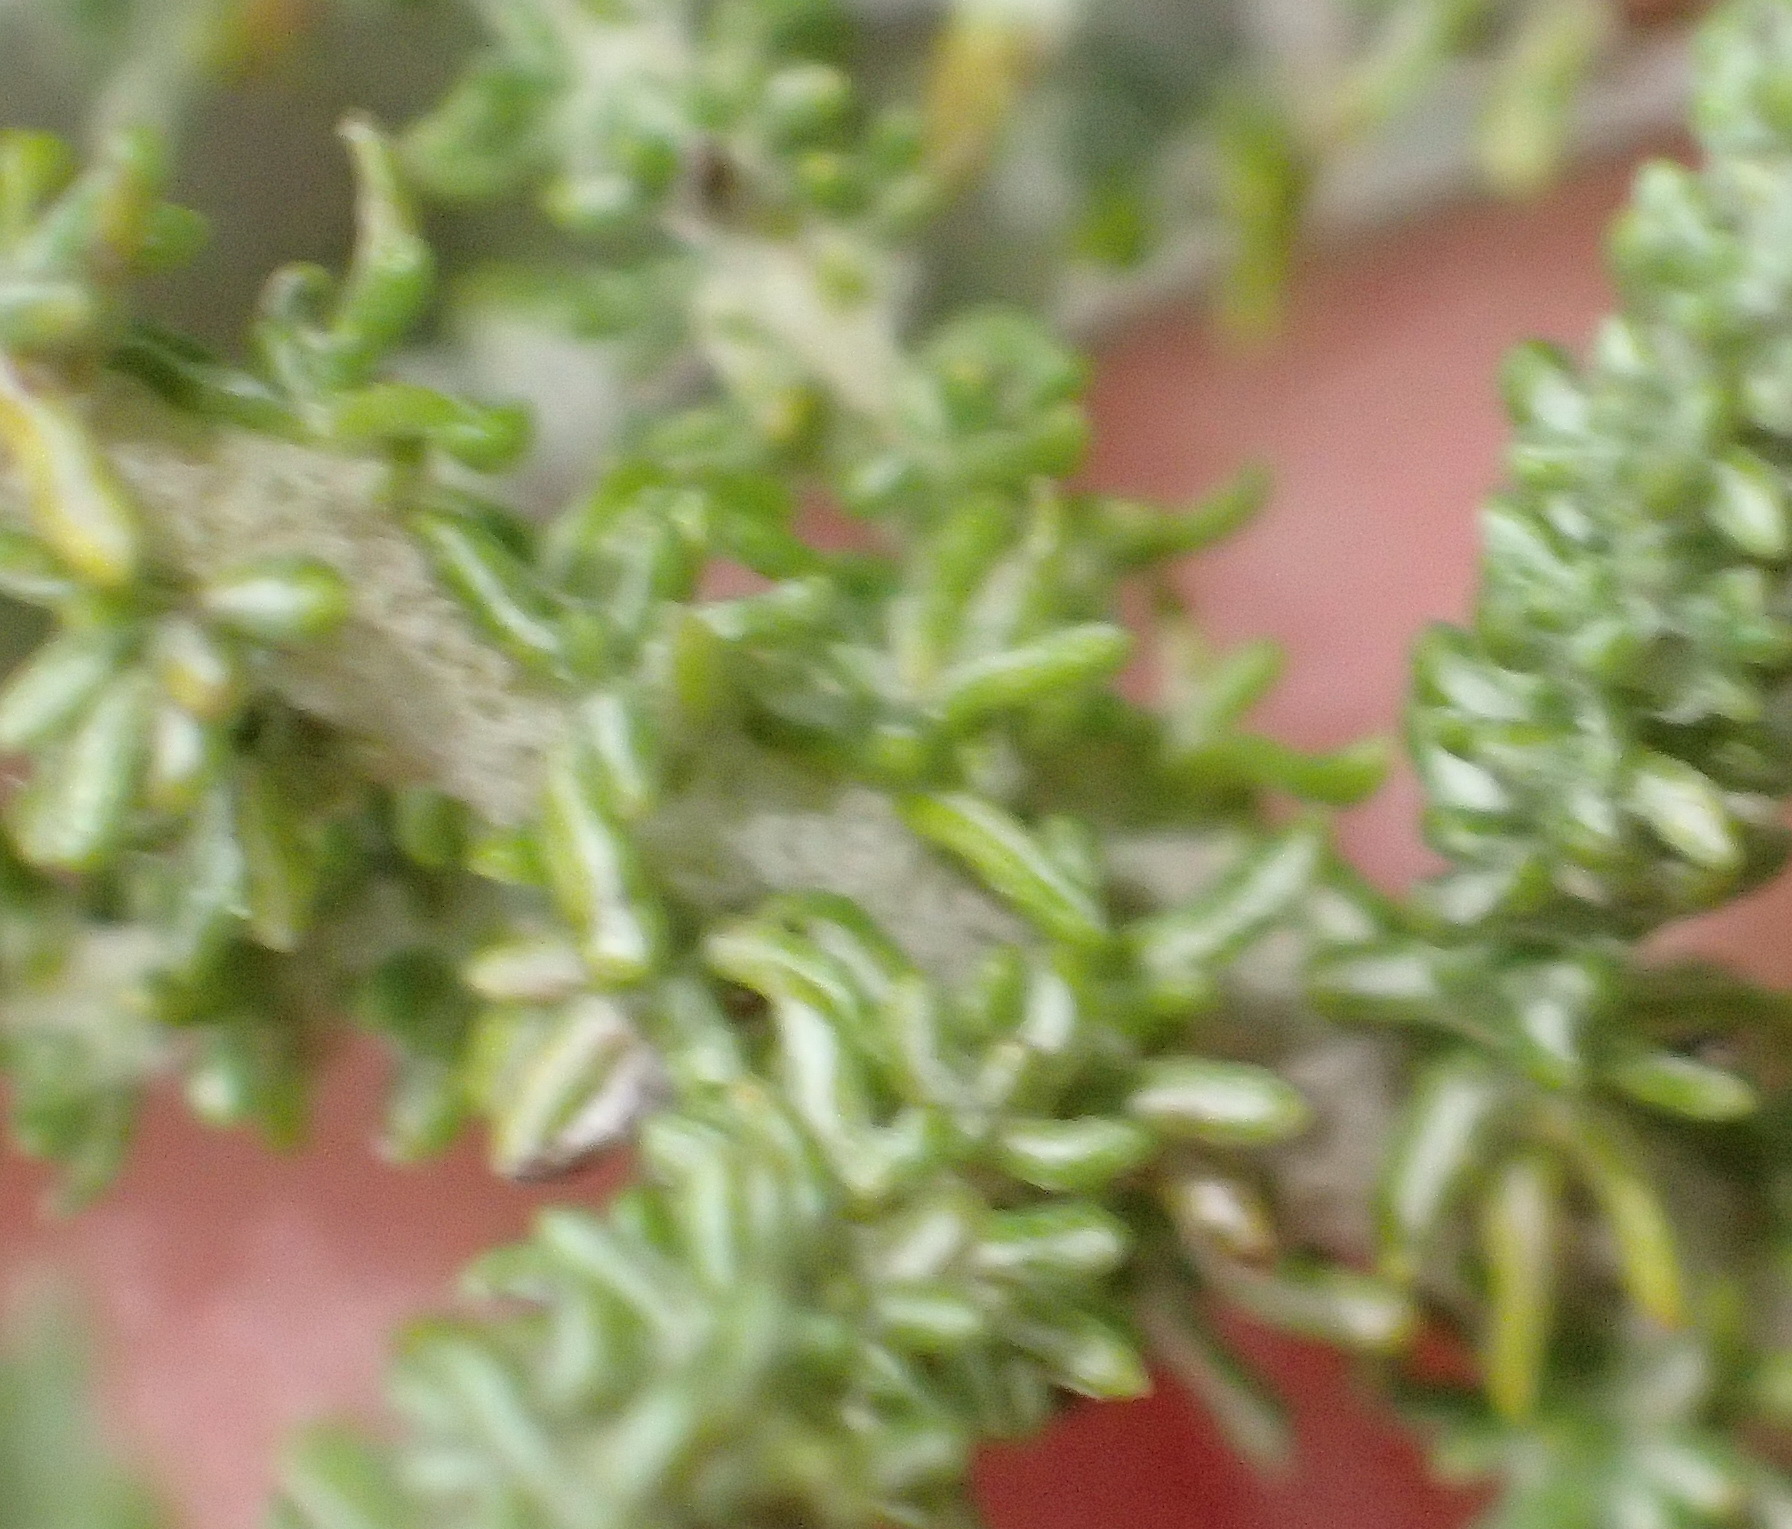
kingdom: Plantae
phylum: Tracheophyta
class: Magnoliopsida
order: Asterales
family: Asteraceae
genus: Seriphium
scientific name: Seriphium plumosum
